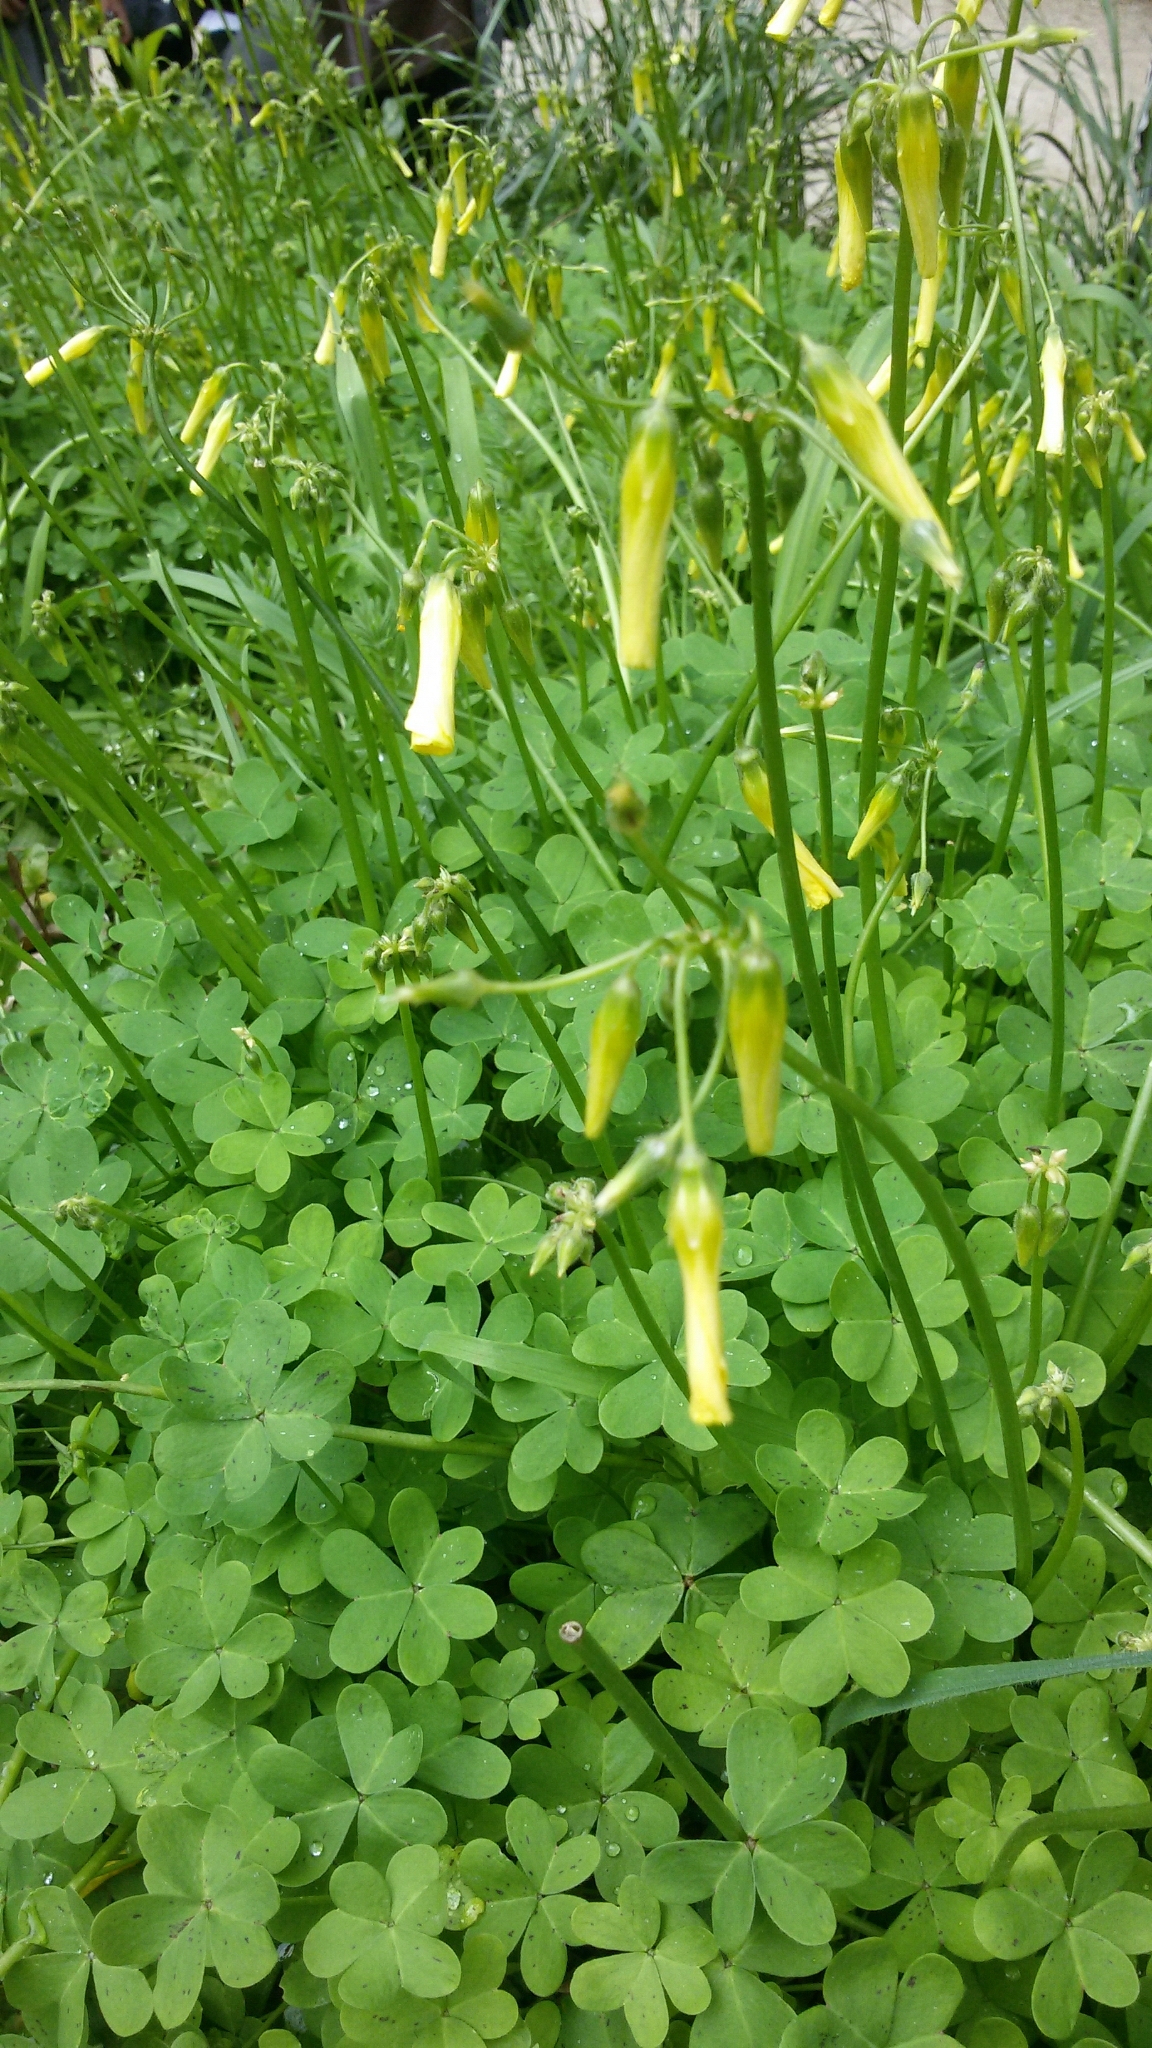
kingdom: Plantae
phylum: Tracheophyta
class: Magnoliopsida
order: Oxalidales
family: Oxalidaceae
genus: Oxalis
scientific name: Oxalis pes-caprae
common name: Bermuda-buttercup
